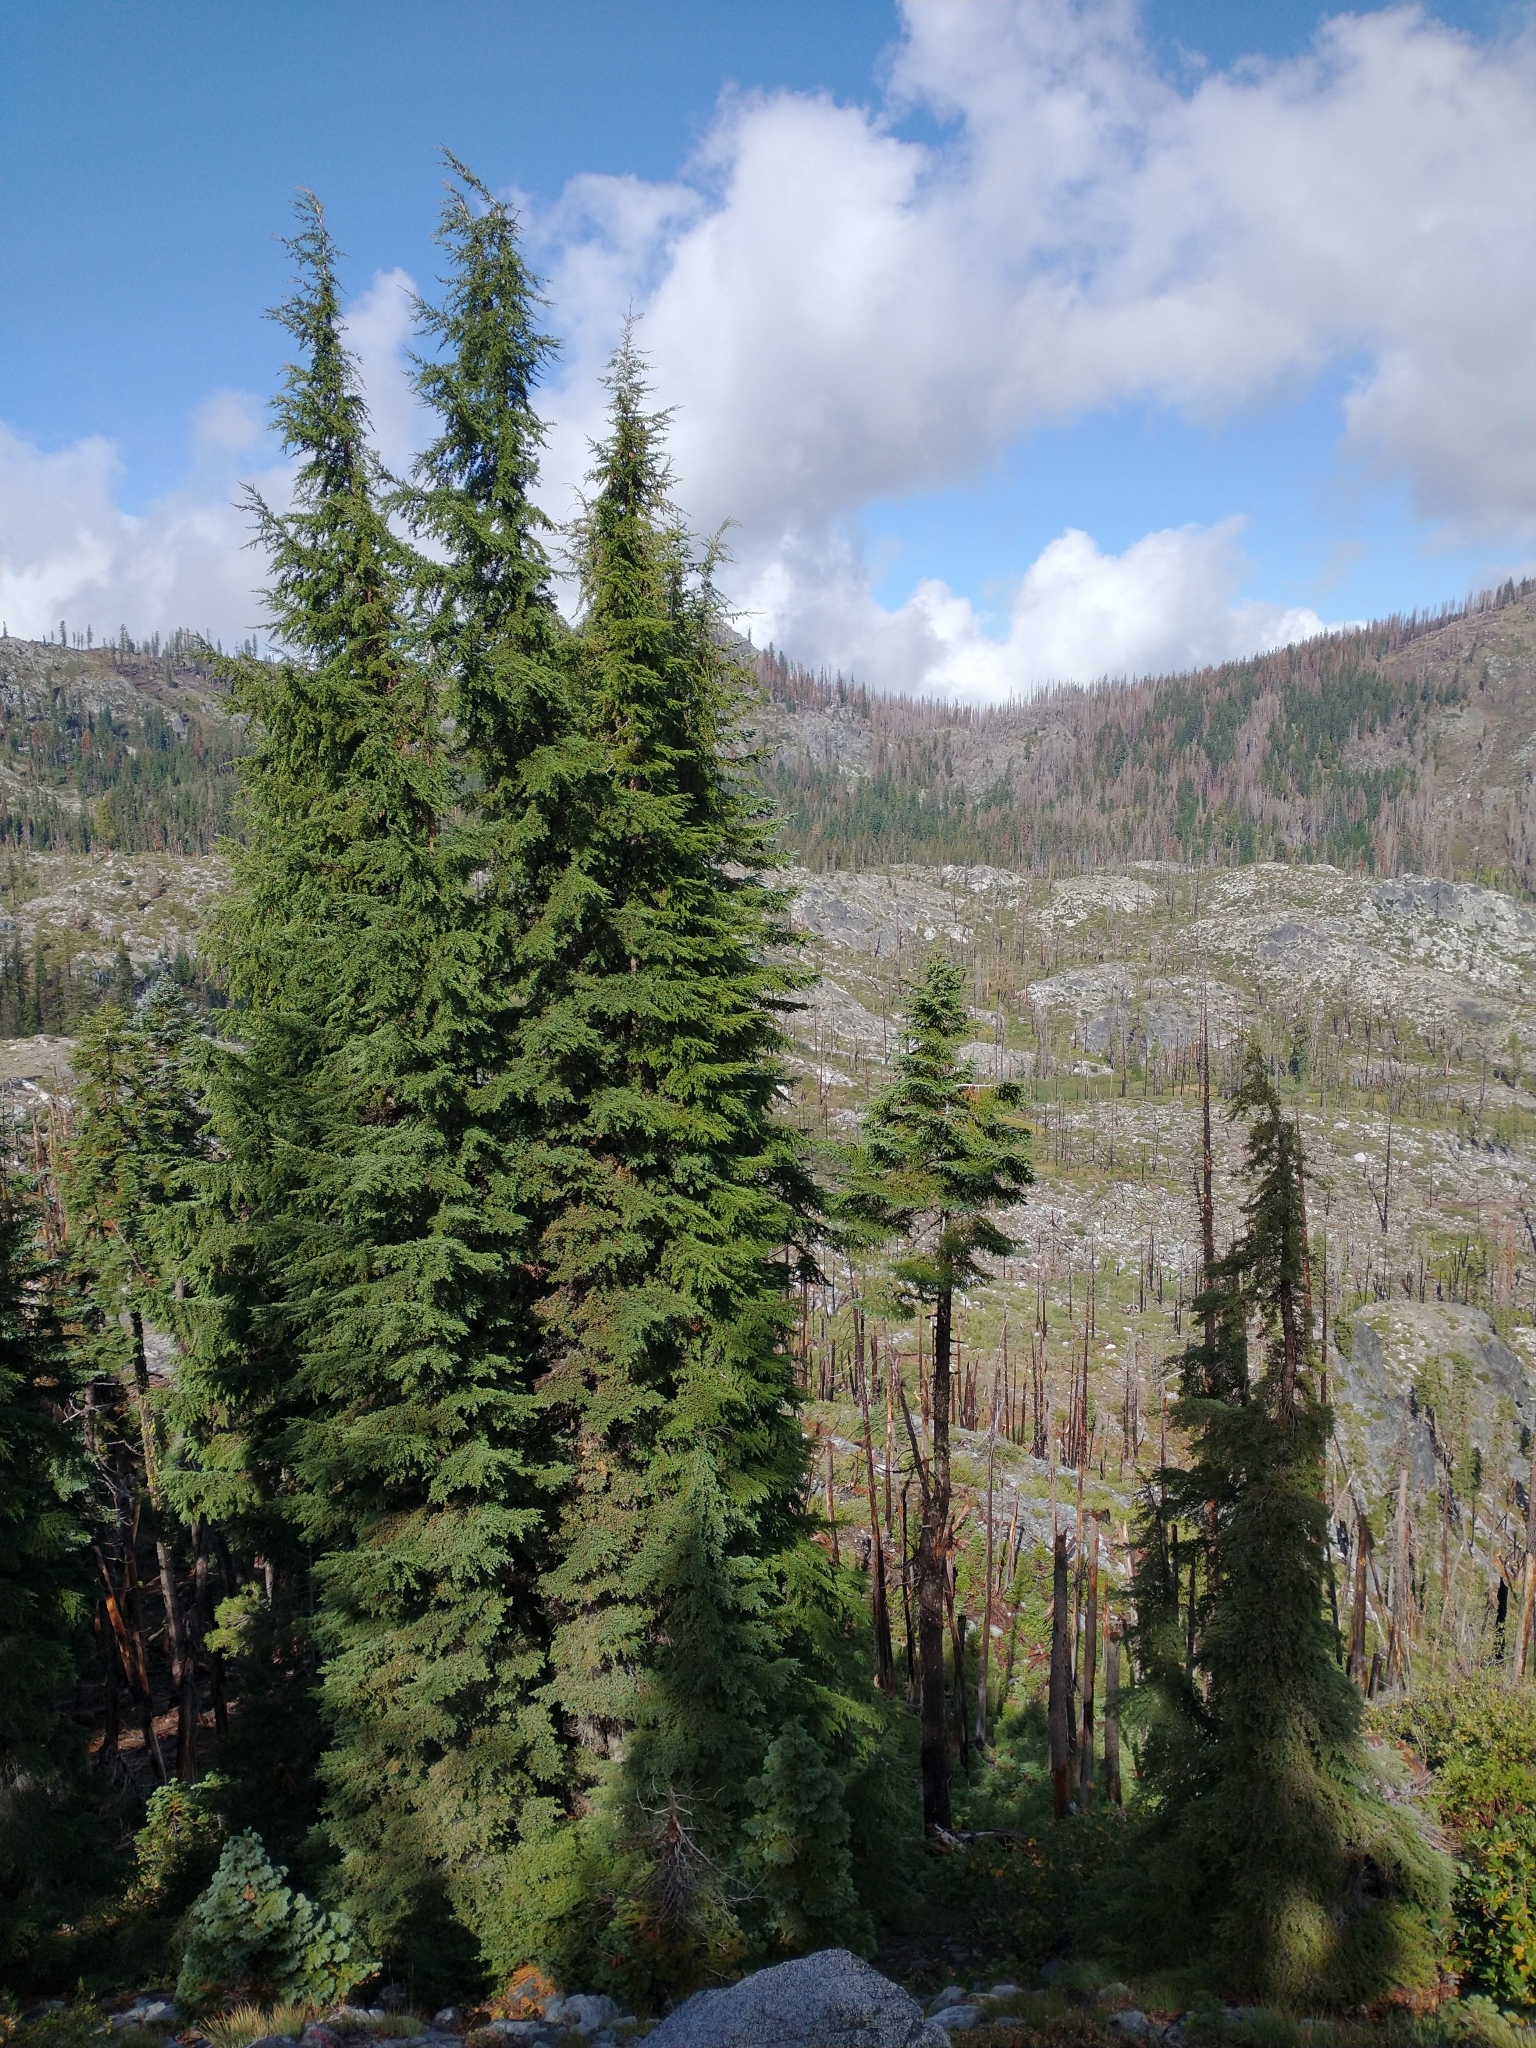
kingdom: Plantae
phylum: Tracheophyta
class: Pinopsida
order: Pinales
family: Pinaceae
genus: Tsuga
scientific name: Tsuga mertensiana
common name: Mountain hemlock
